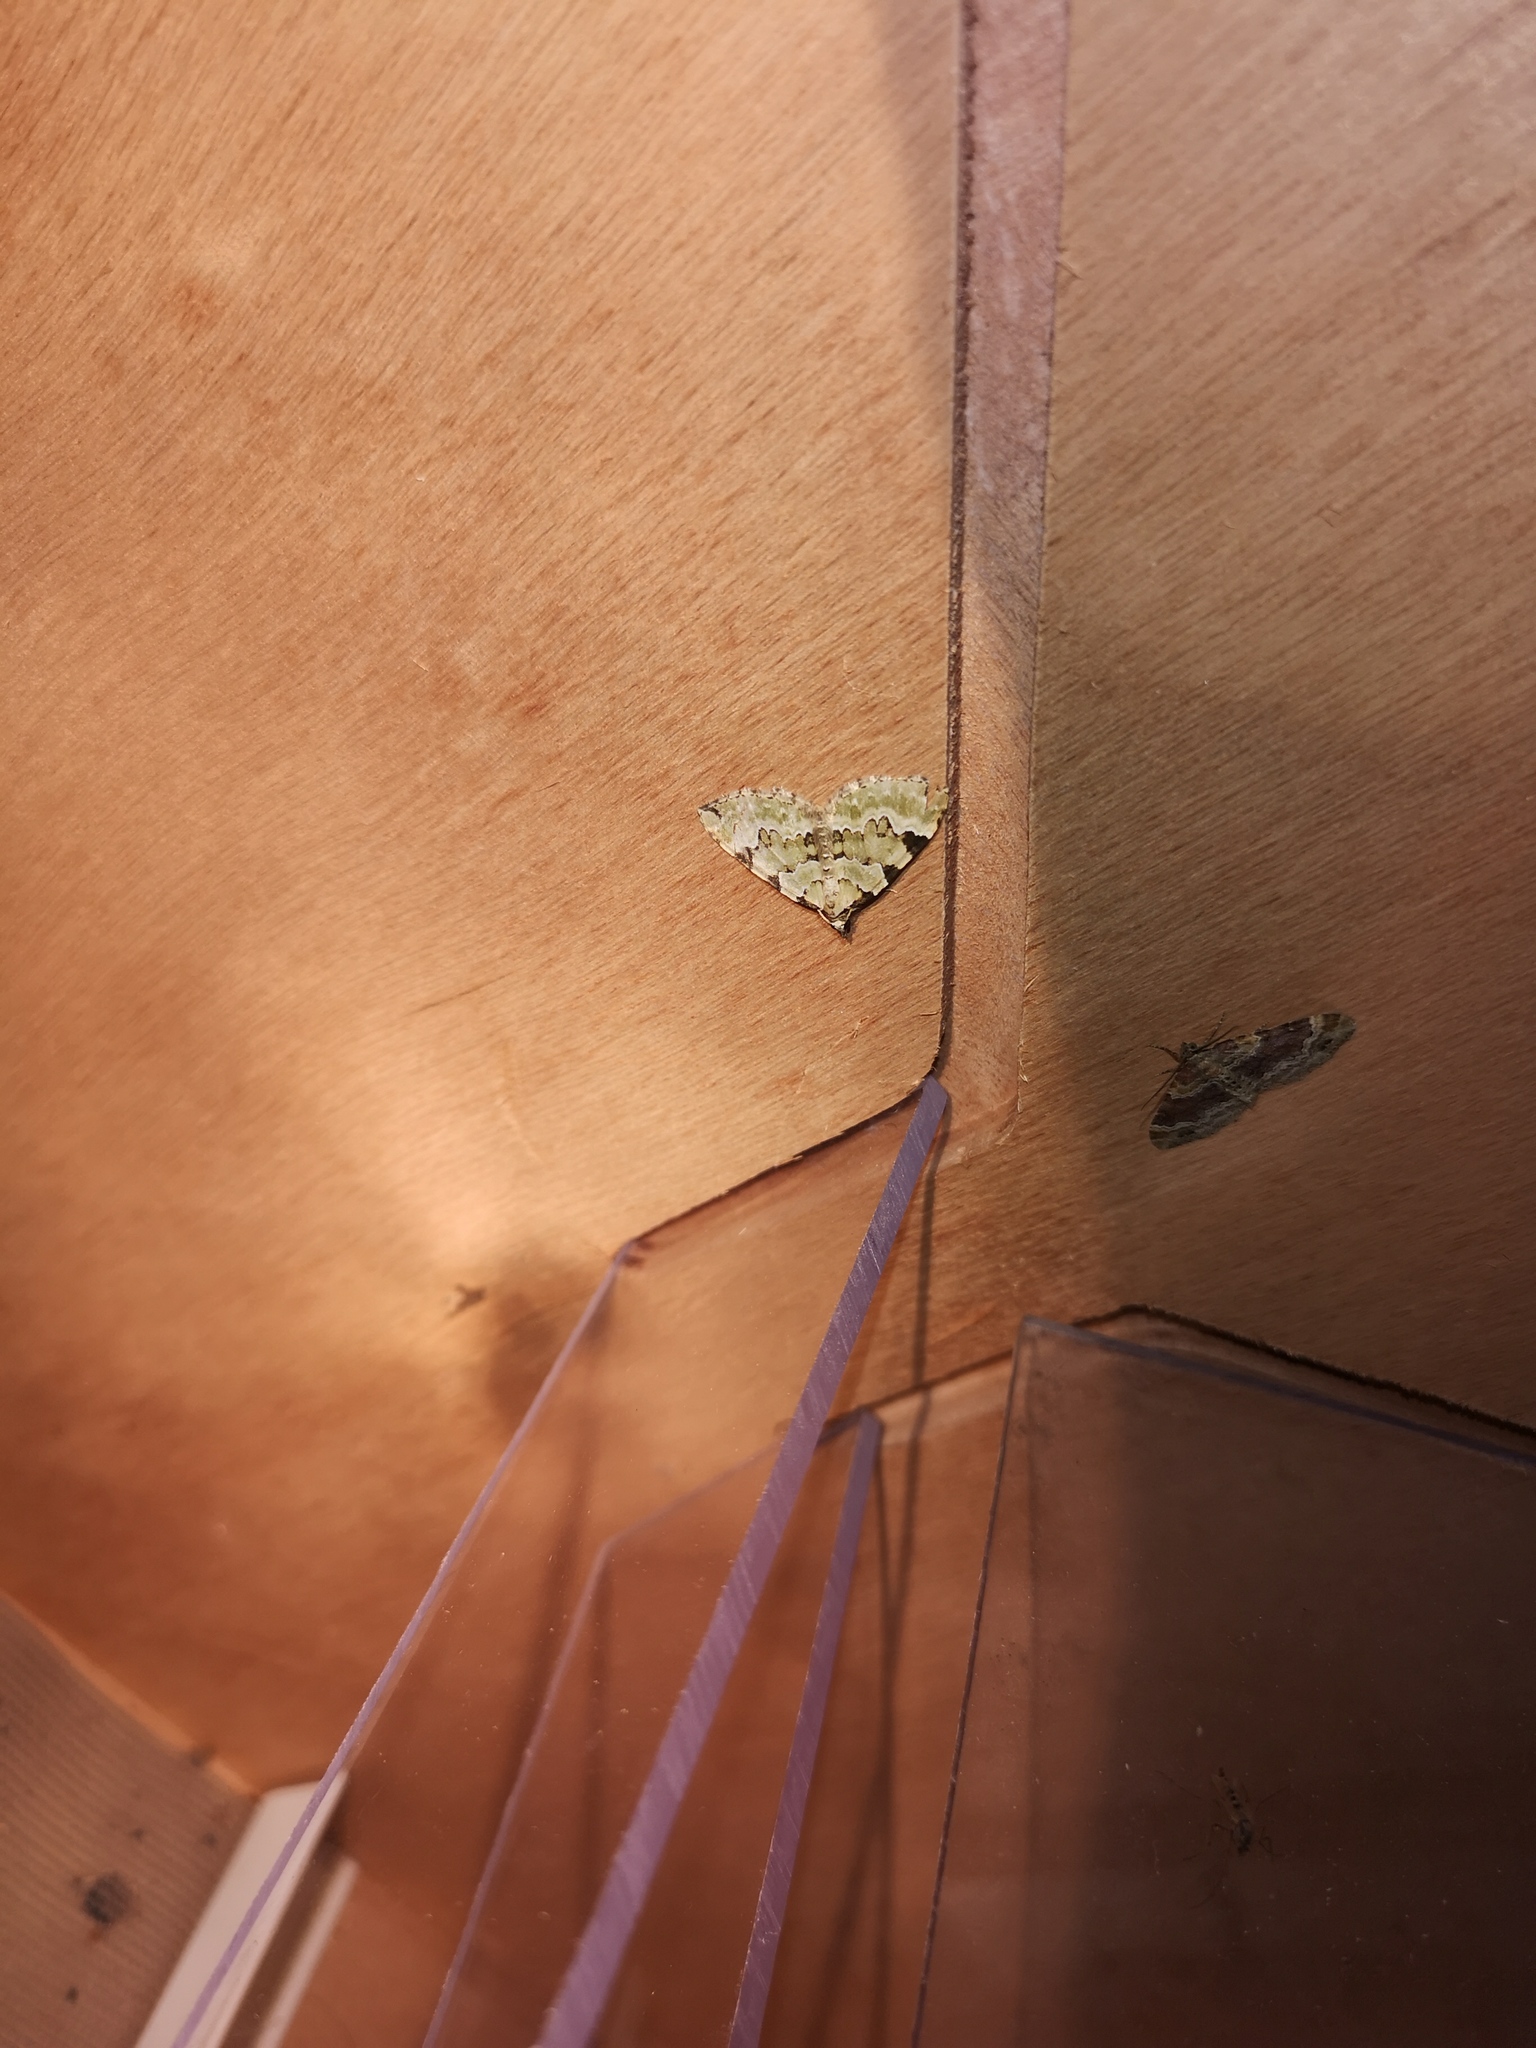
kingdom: Animalia
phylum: Arthropoda
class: Insecta
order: Lepidoptera
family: Geometridae
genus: Colostygia
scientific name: Colostygia pectinataria
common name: Green carpet
